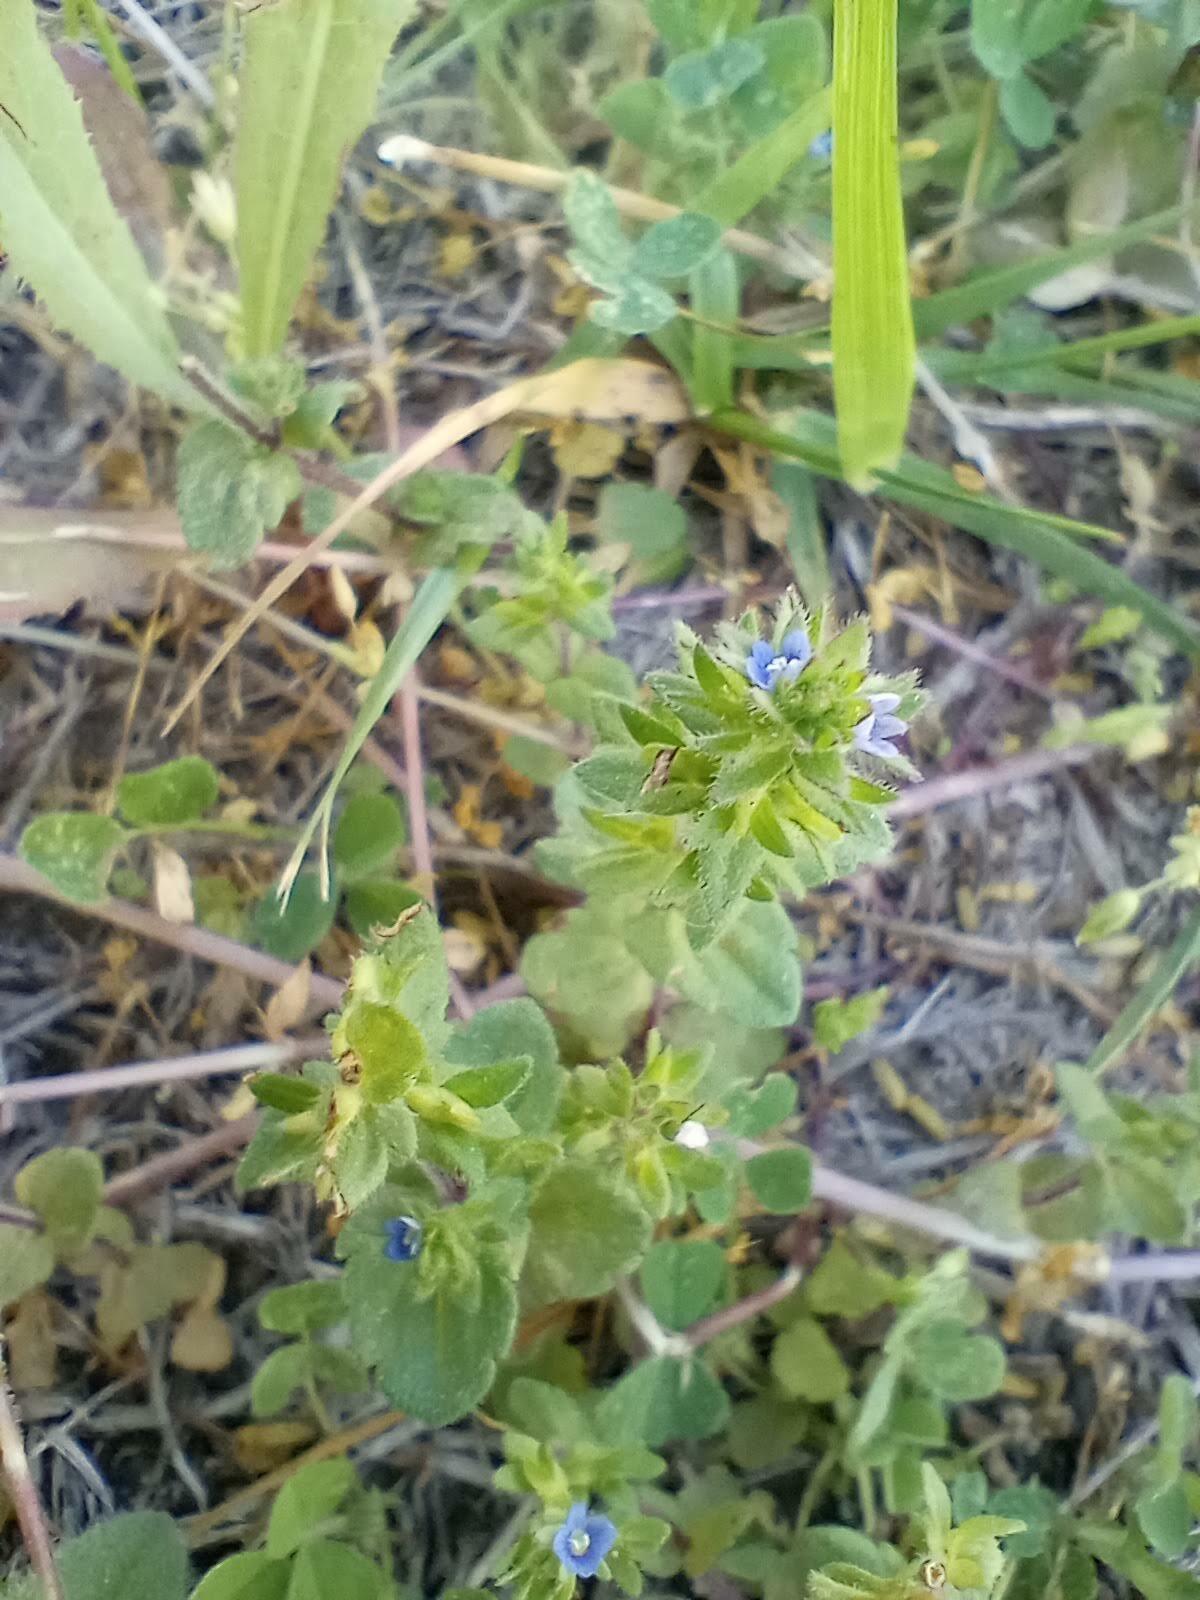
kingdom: Plantae
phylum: Tracheophyta
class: Magnoliopsida
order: Lamiales
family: Plantaginaceae
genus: Veronica
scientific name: Veronica arvensis
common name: Corn speedwell
